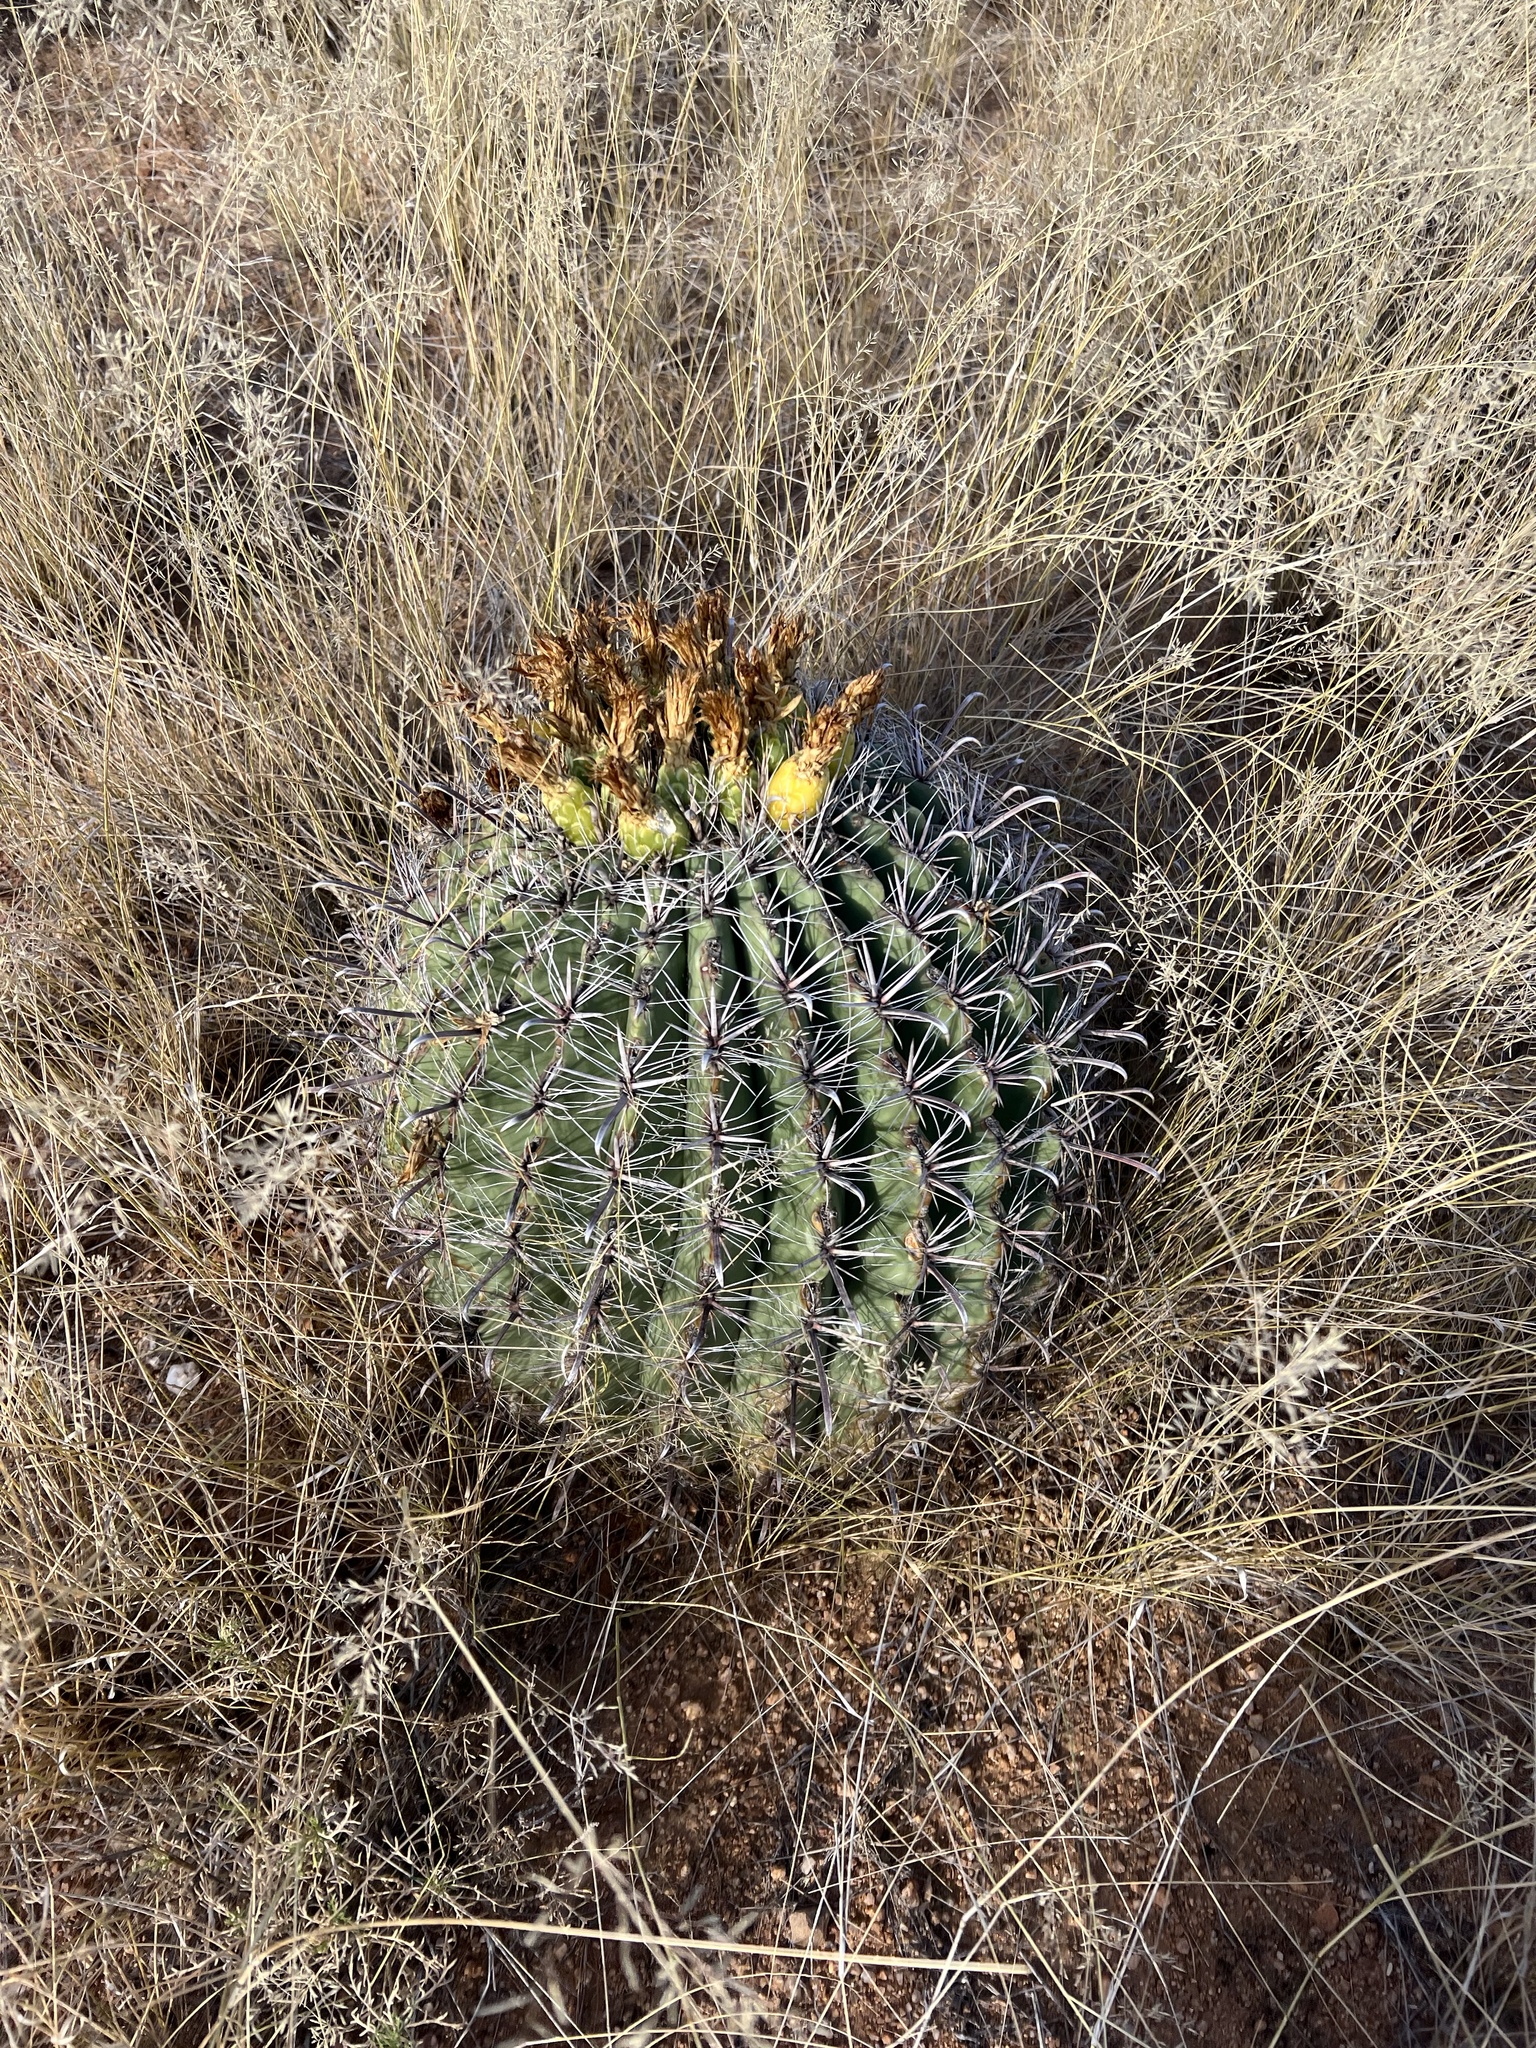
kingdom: Plantae
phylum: Tracheophyta
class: Magnoliopsida
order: Caryophyllales
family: Cactaceae
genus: Ferocactus
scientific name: Ferocactus wislizeni
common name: Candy barrel cactus
